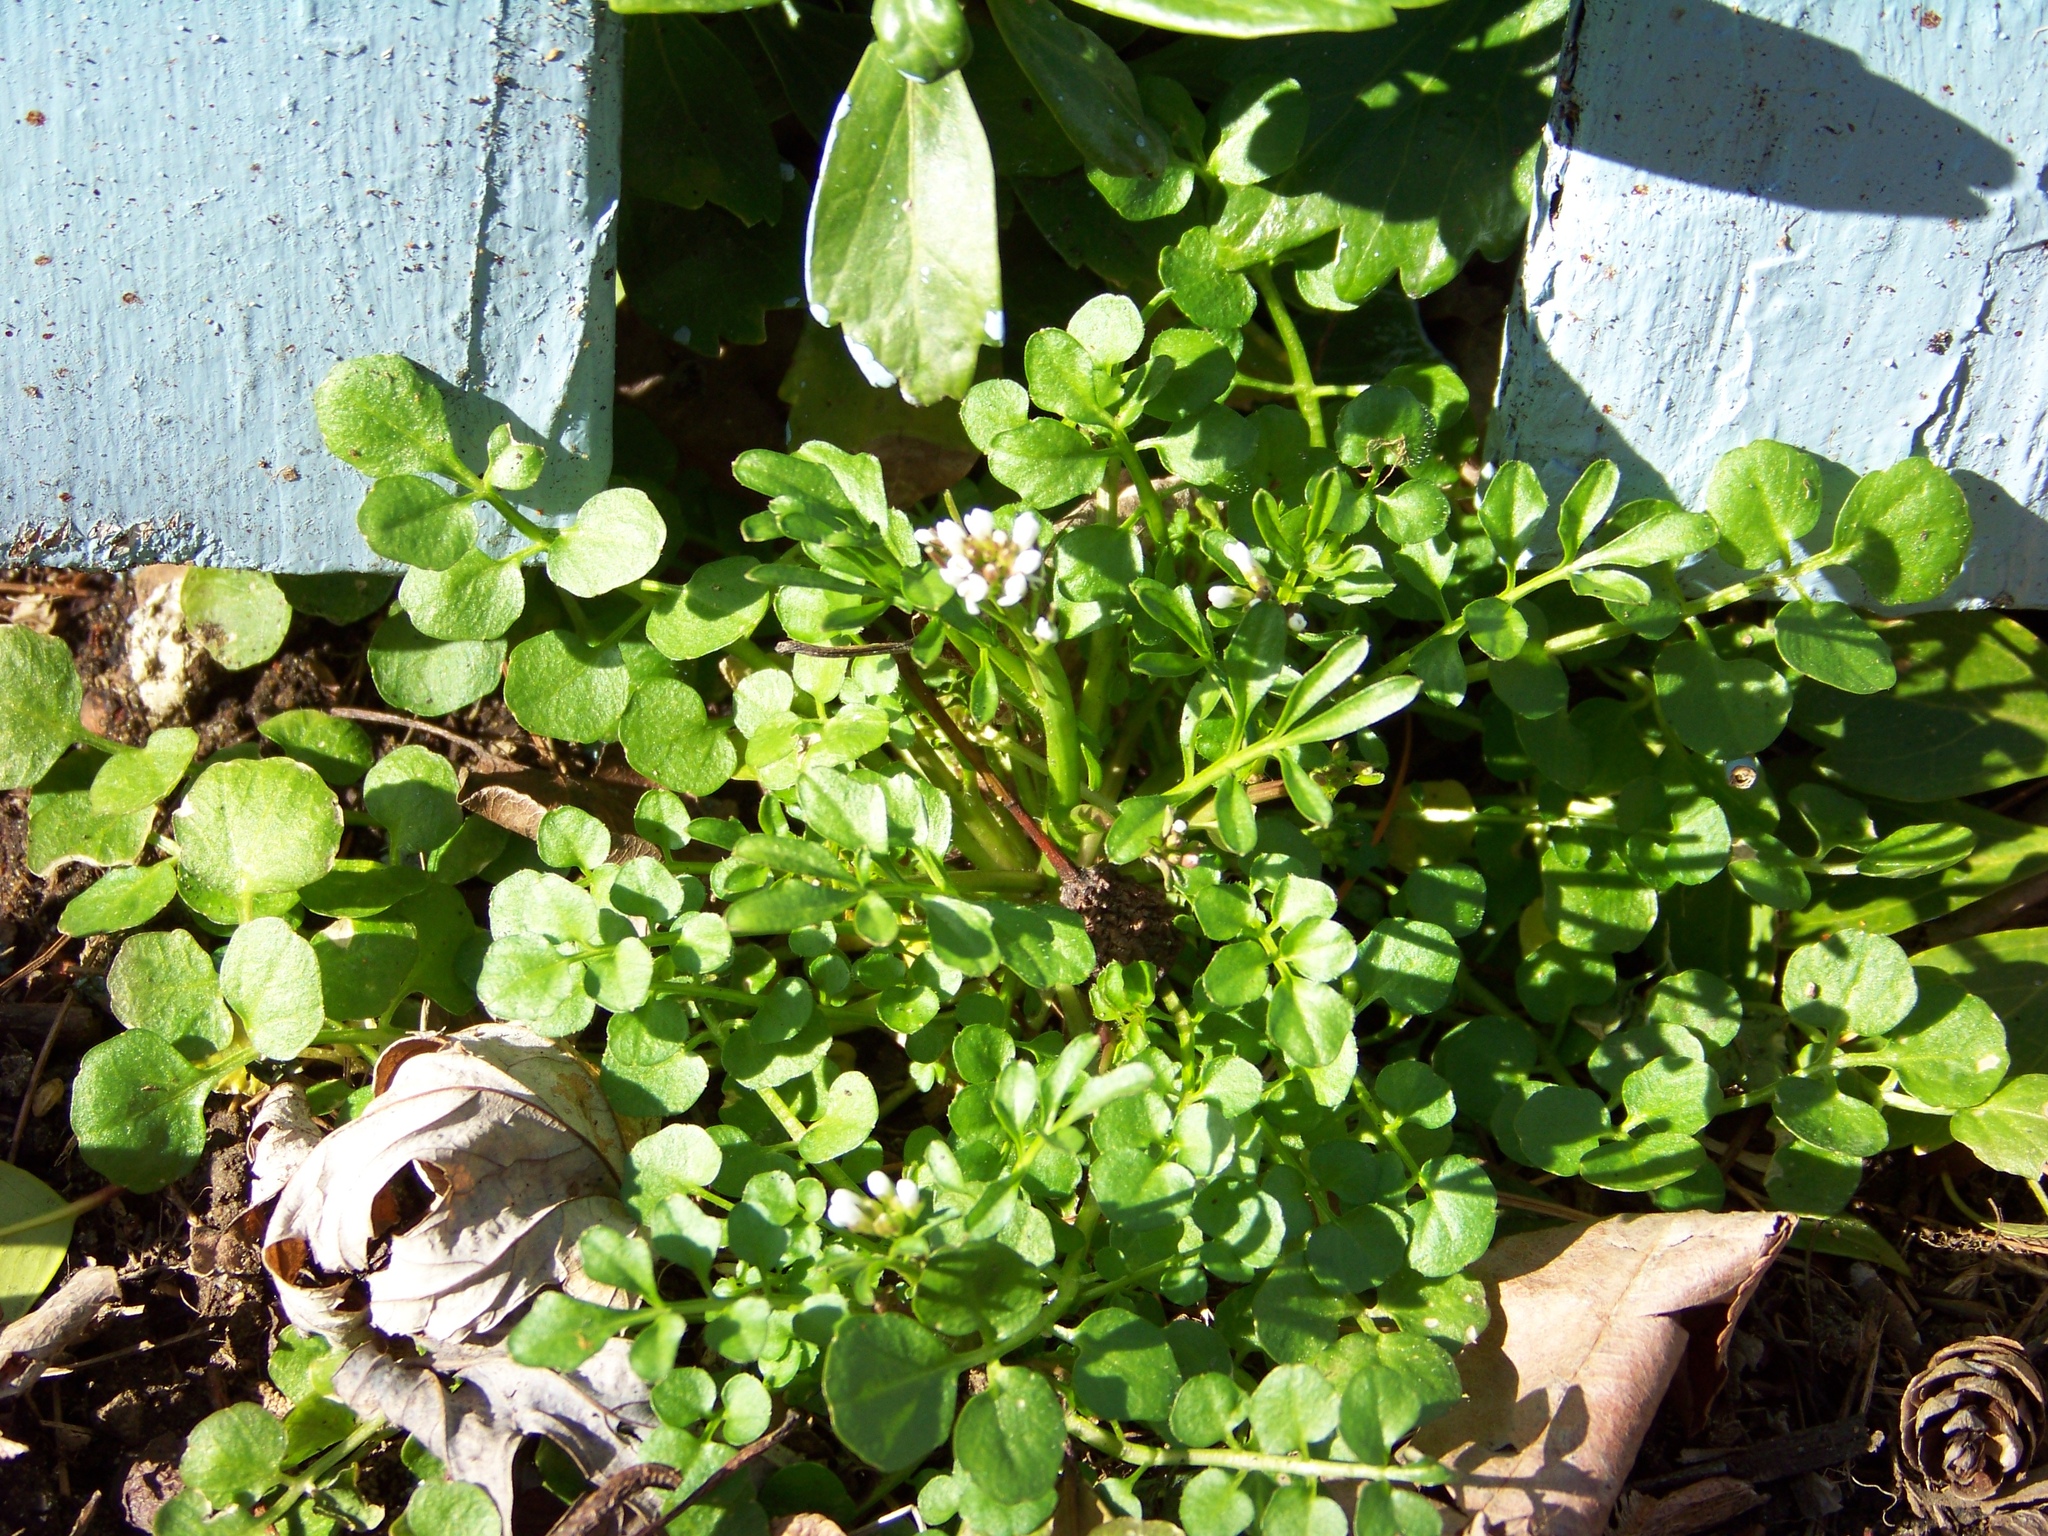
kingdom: Plantae
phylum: Tracheophyta
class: Magnoliopsida
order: Brassicales
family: Brassicaceae
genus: Cardamine
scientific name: Cardamine hirsuta
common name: Hairy bittercress
